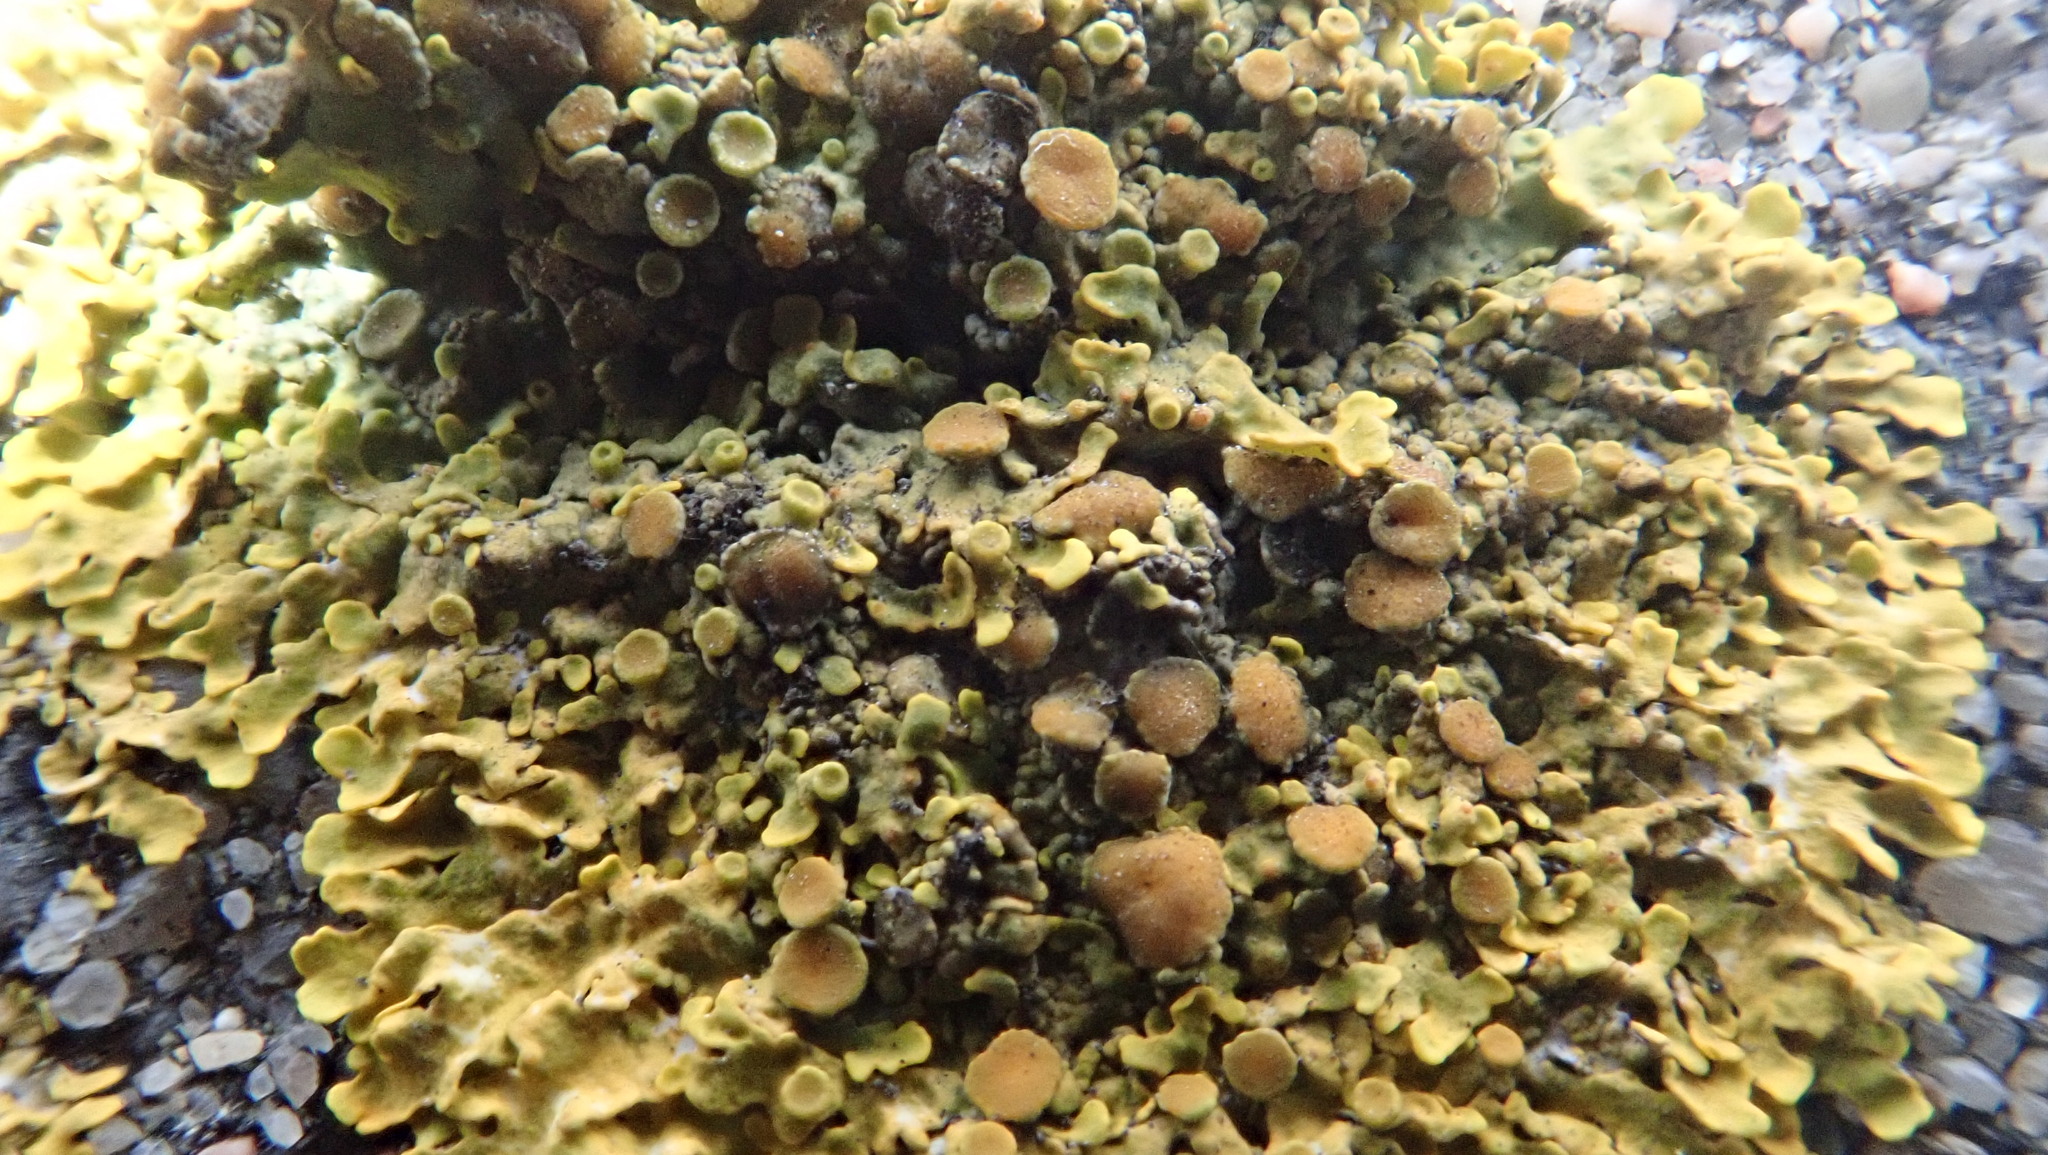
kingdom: Fungi
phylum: Ascomycota
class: Lecanoromycetes
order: Teloschistales
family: Teloschistaceae
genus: Xanthoria
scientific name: Xanthoria parietina
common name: Common orange lichen
